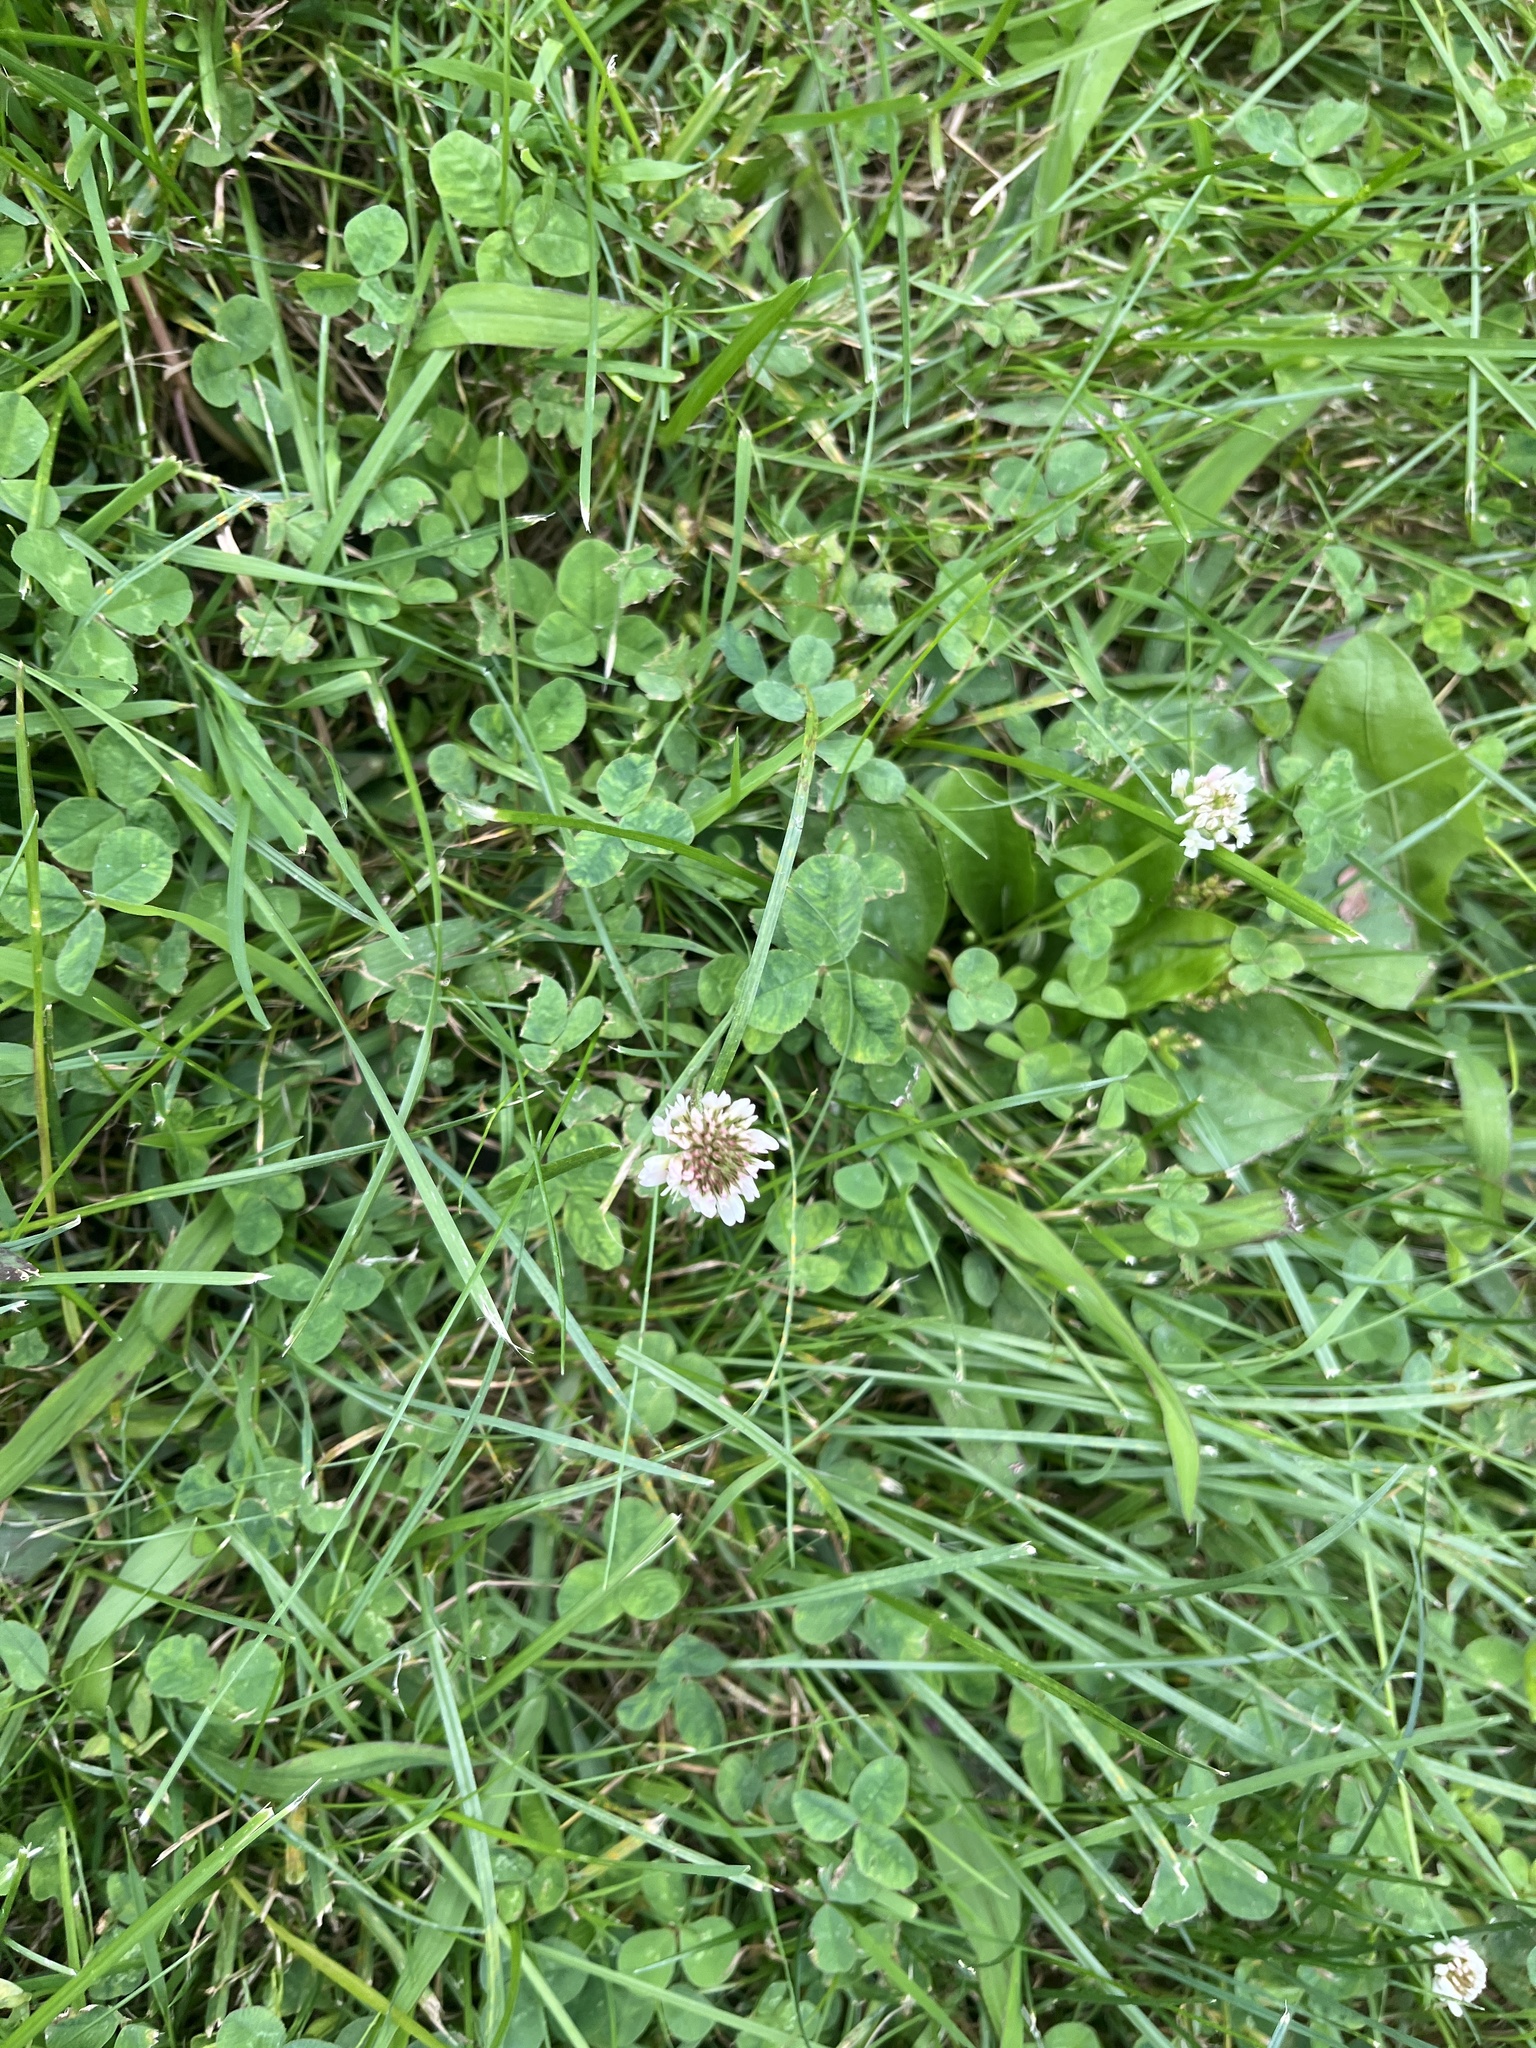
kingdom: Plantae
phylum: Tracheophyta
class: Magnoliopsida
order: Fabales
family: Fabaceae
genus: Trifolium
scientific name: Trifolium repens
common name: White clover
